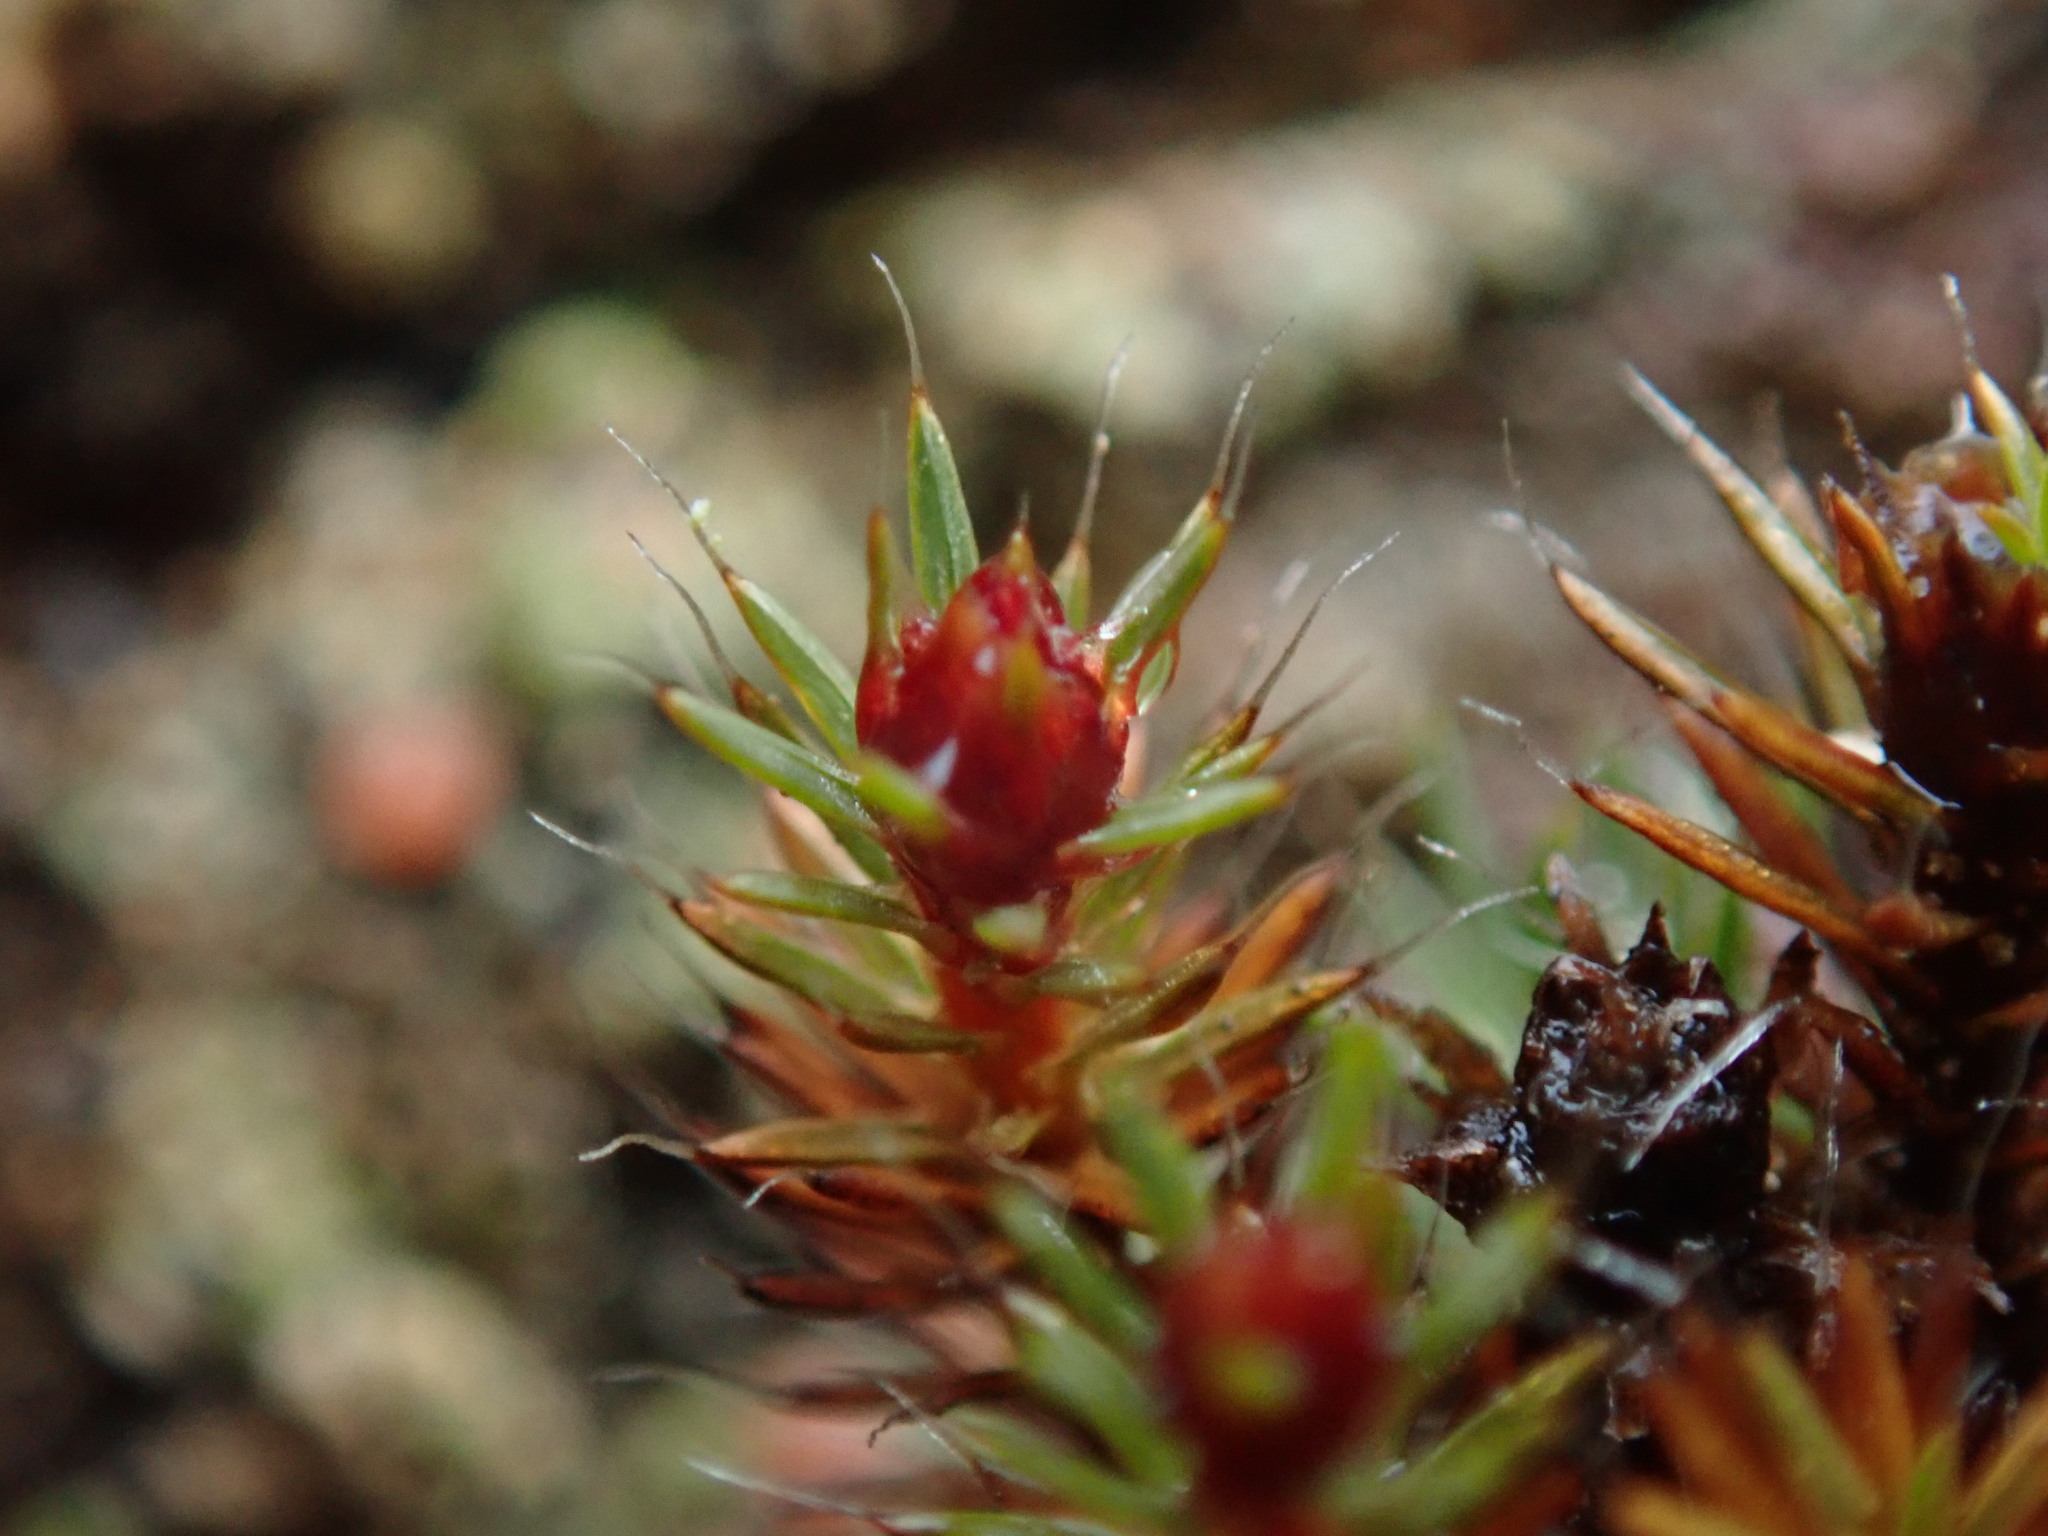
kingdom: Plantae
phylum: Bryophyta
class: Polytrichopsida
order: Polytrichales
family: Polytrichaceae
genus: Polytrichum
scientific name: Polytrichum piliferum
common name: Bristly haircap
